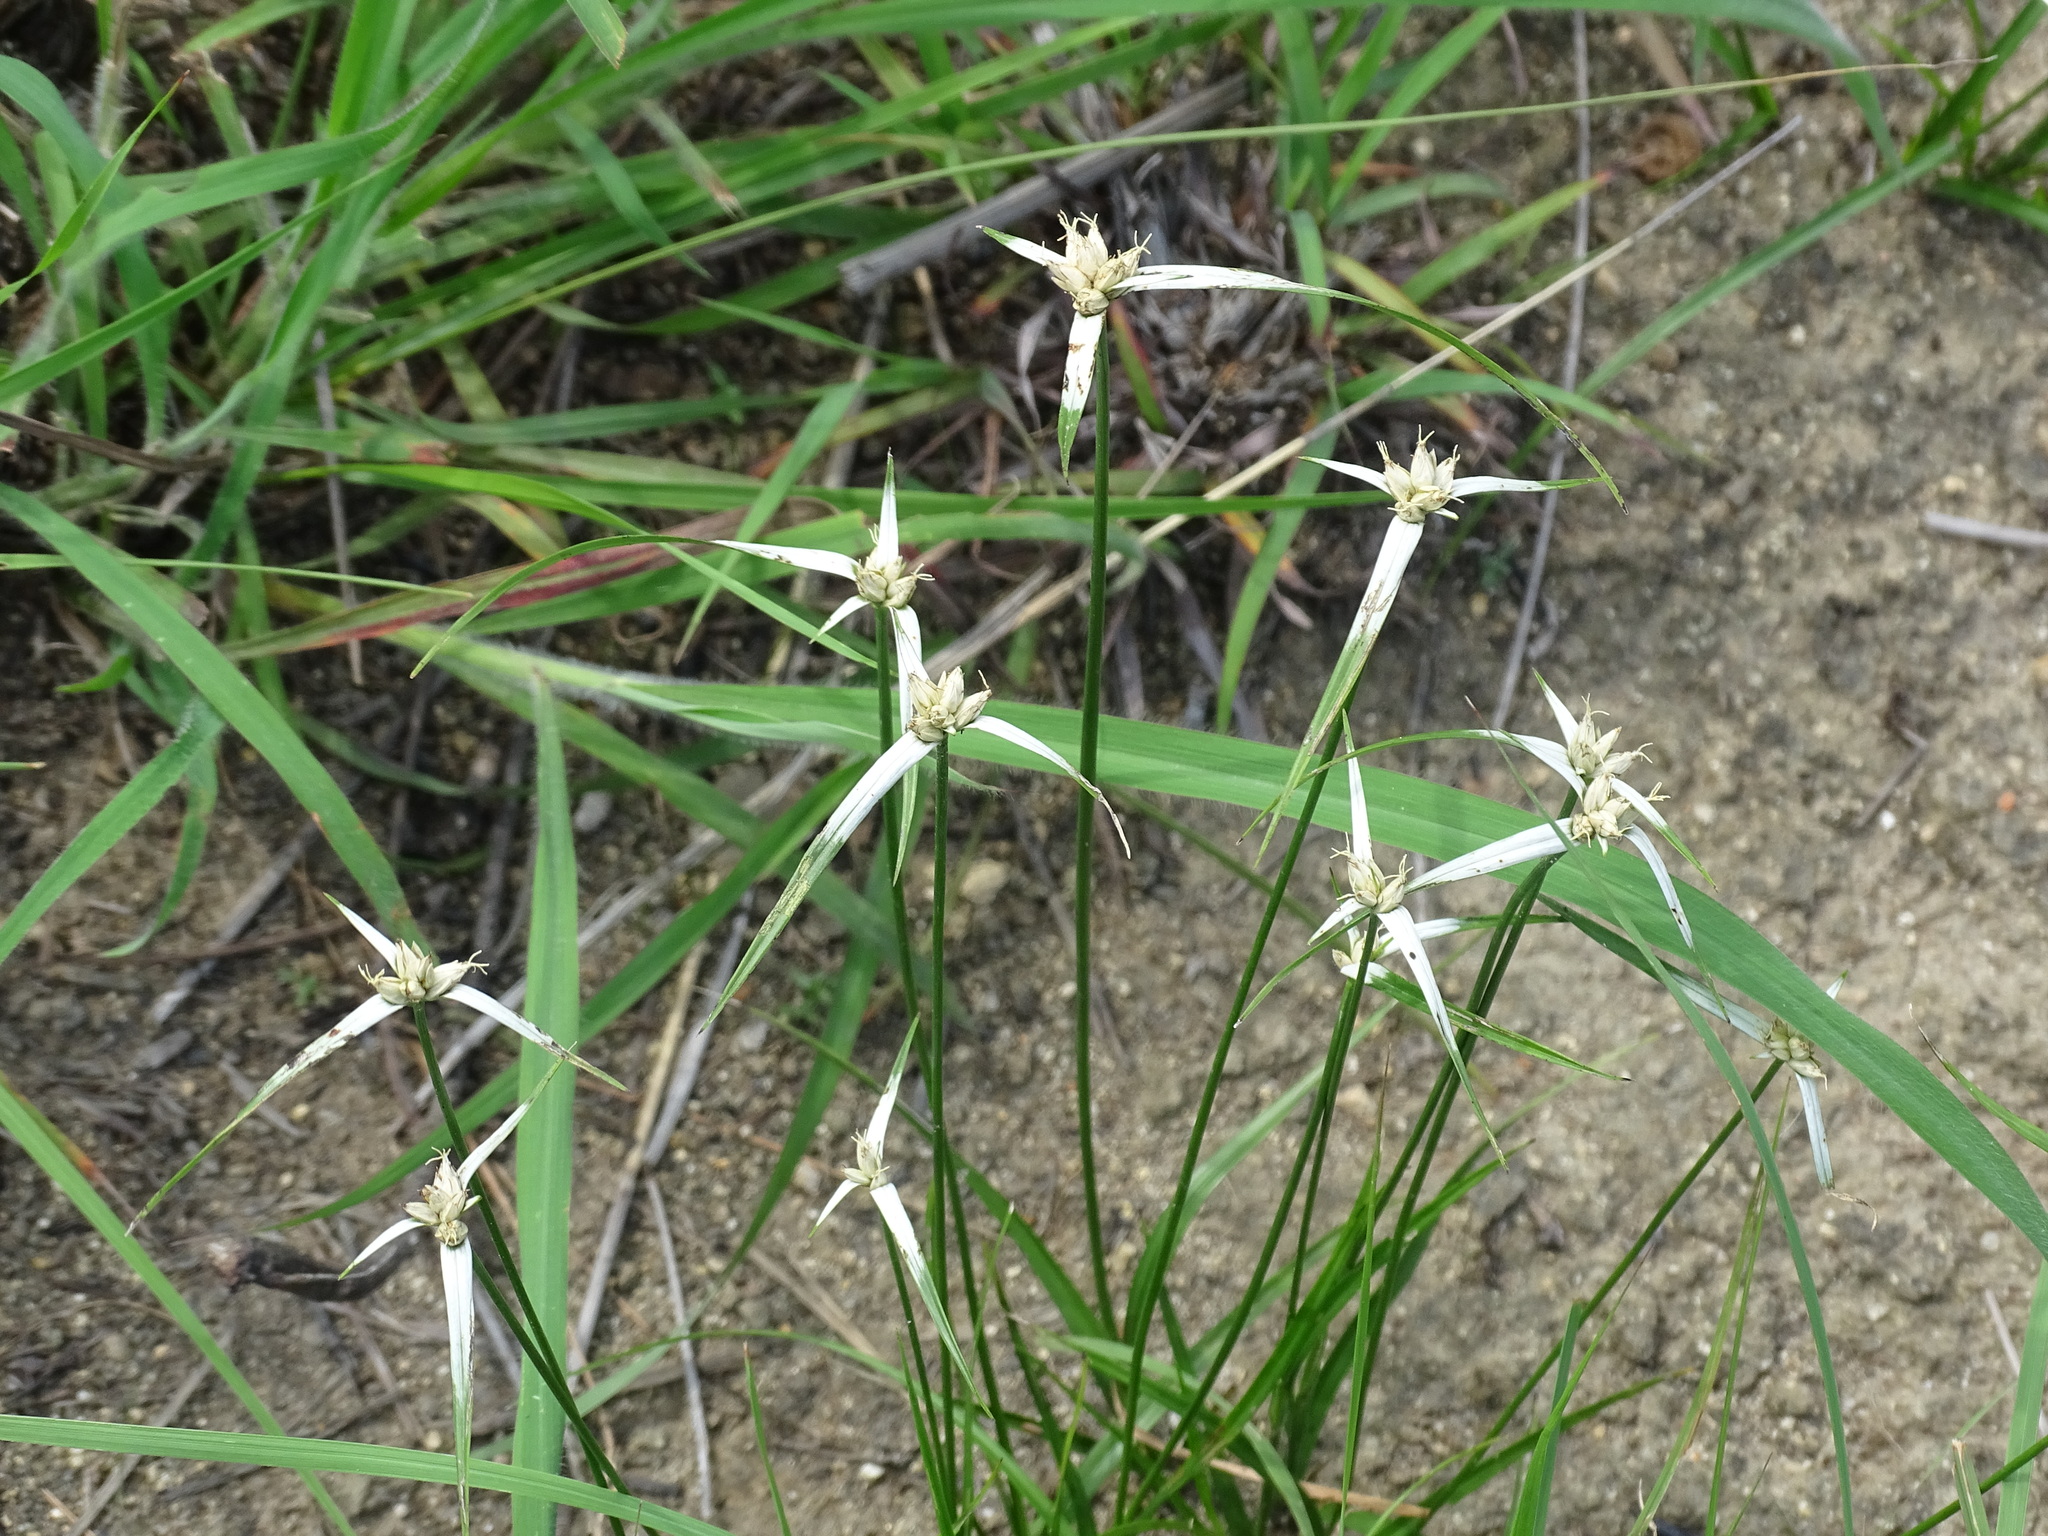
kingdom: Plantae
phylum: Tracheophyta
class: Liliopsida
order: Poales
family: Cyperaceae
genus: Rhynchospora
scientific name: Rhynchospora nervosa
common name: Star sedge
